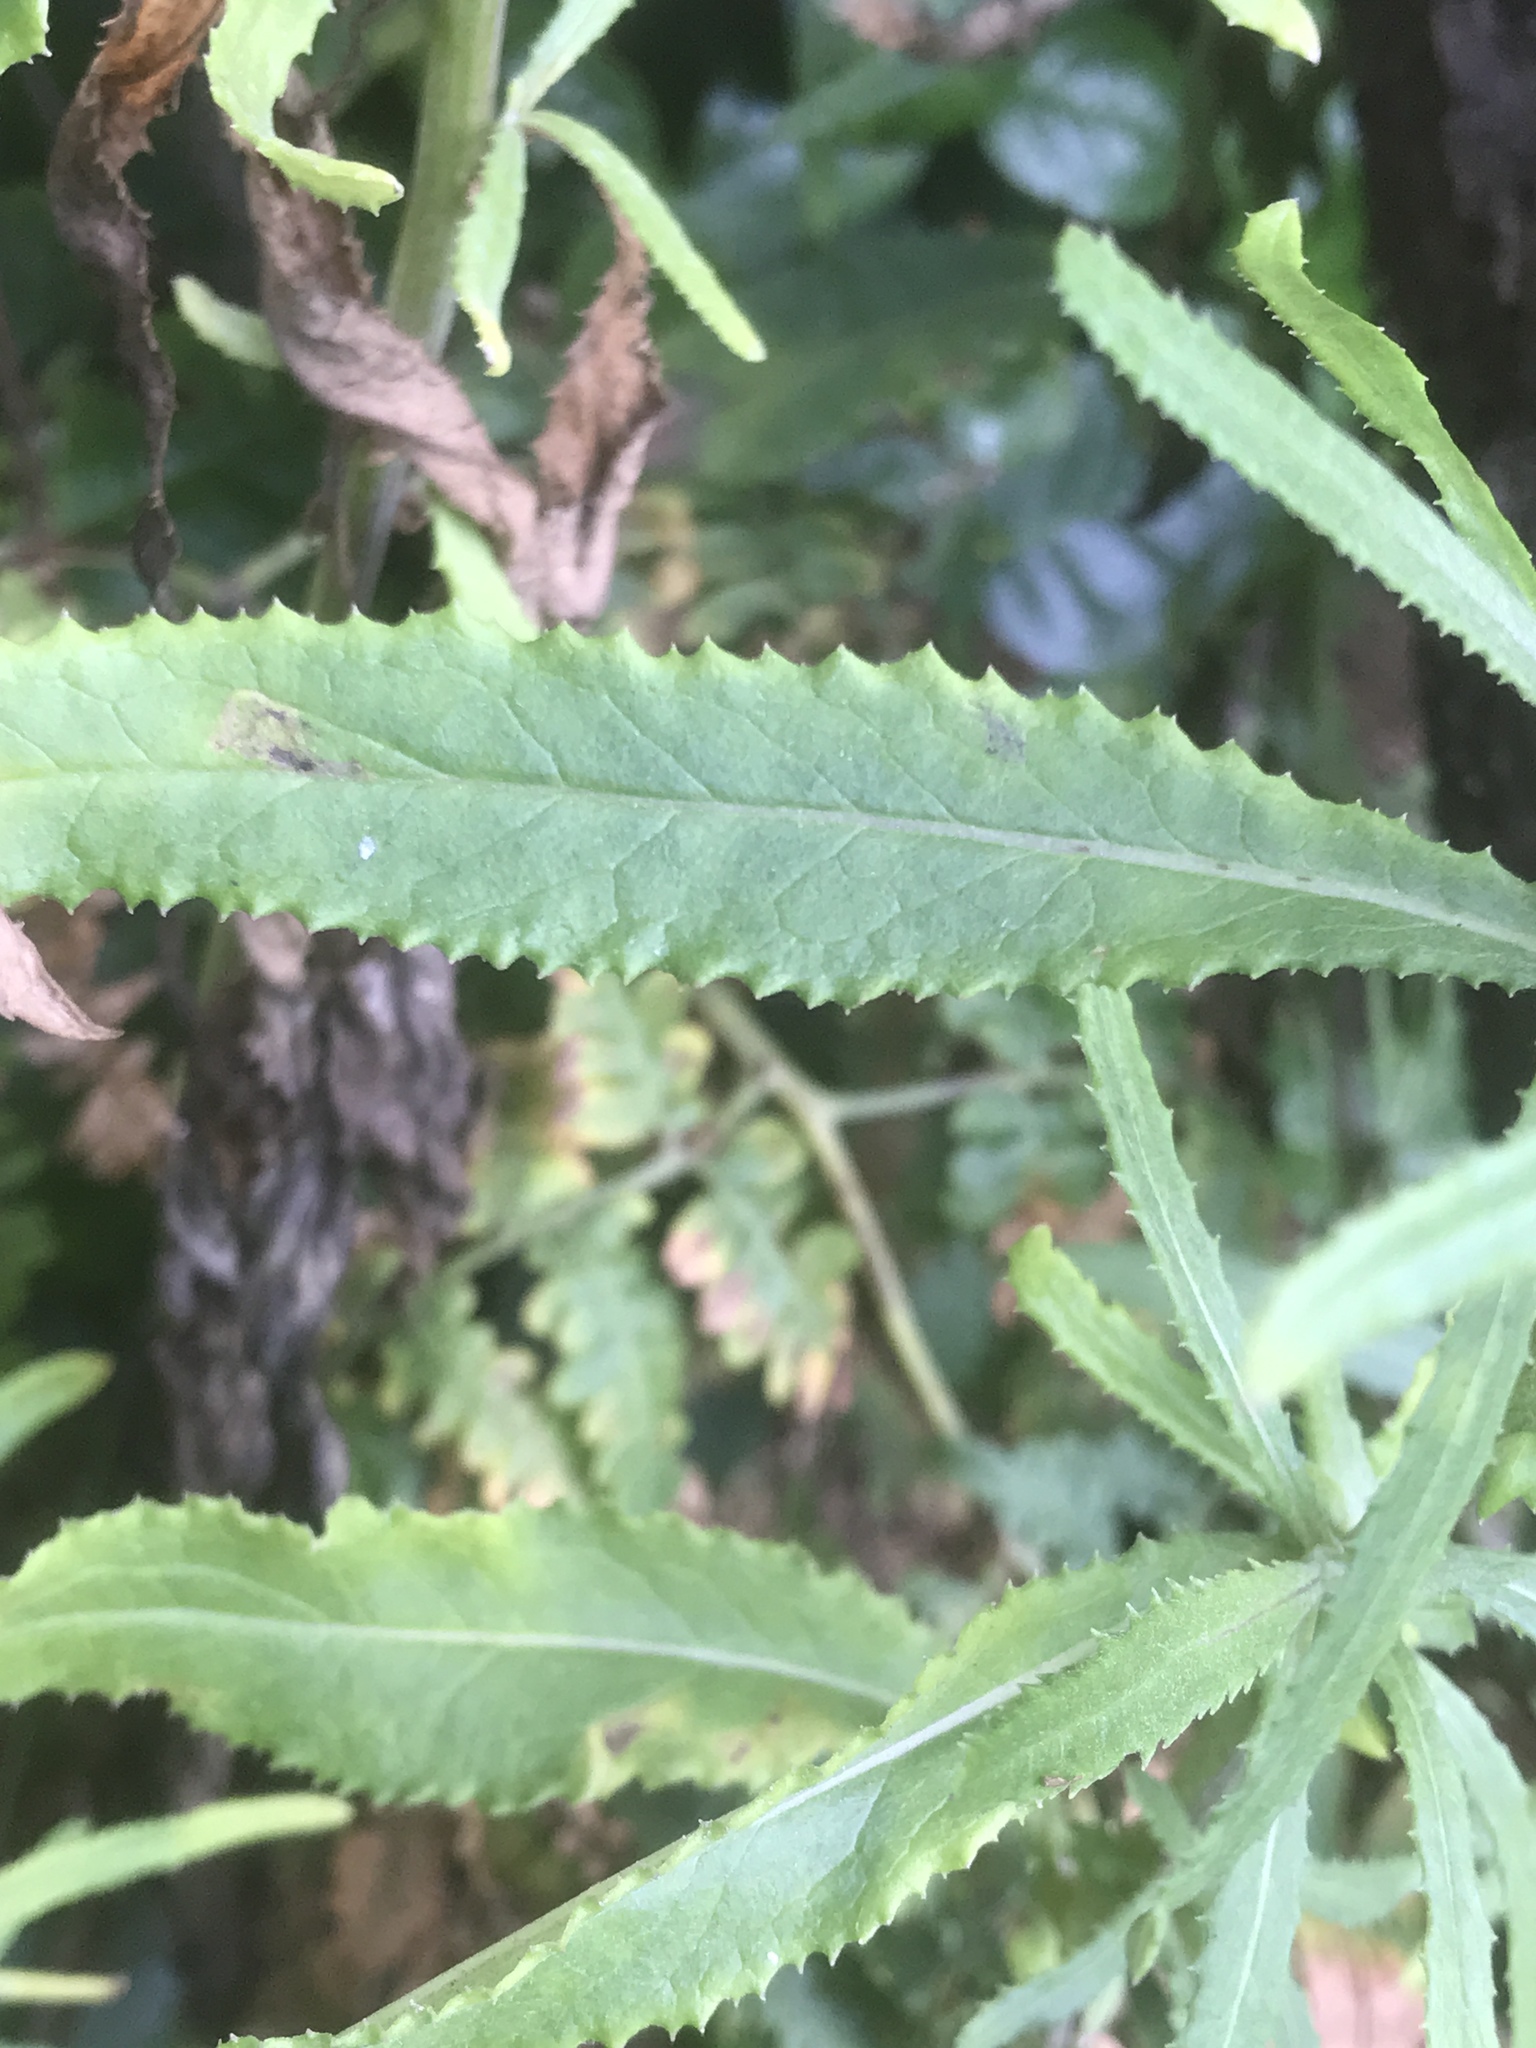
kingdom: Plantae
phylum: Tracheophyta
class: Magnoliopsida
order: Asterales
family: Asteraceae
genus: Senecio
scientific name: Senecio minimus
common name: Toothed fireweed
